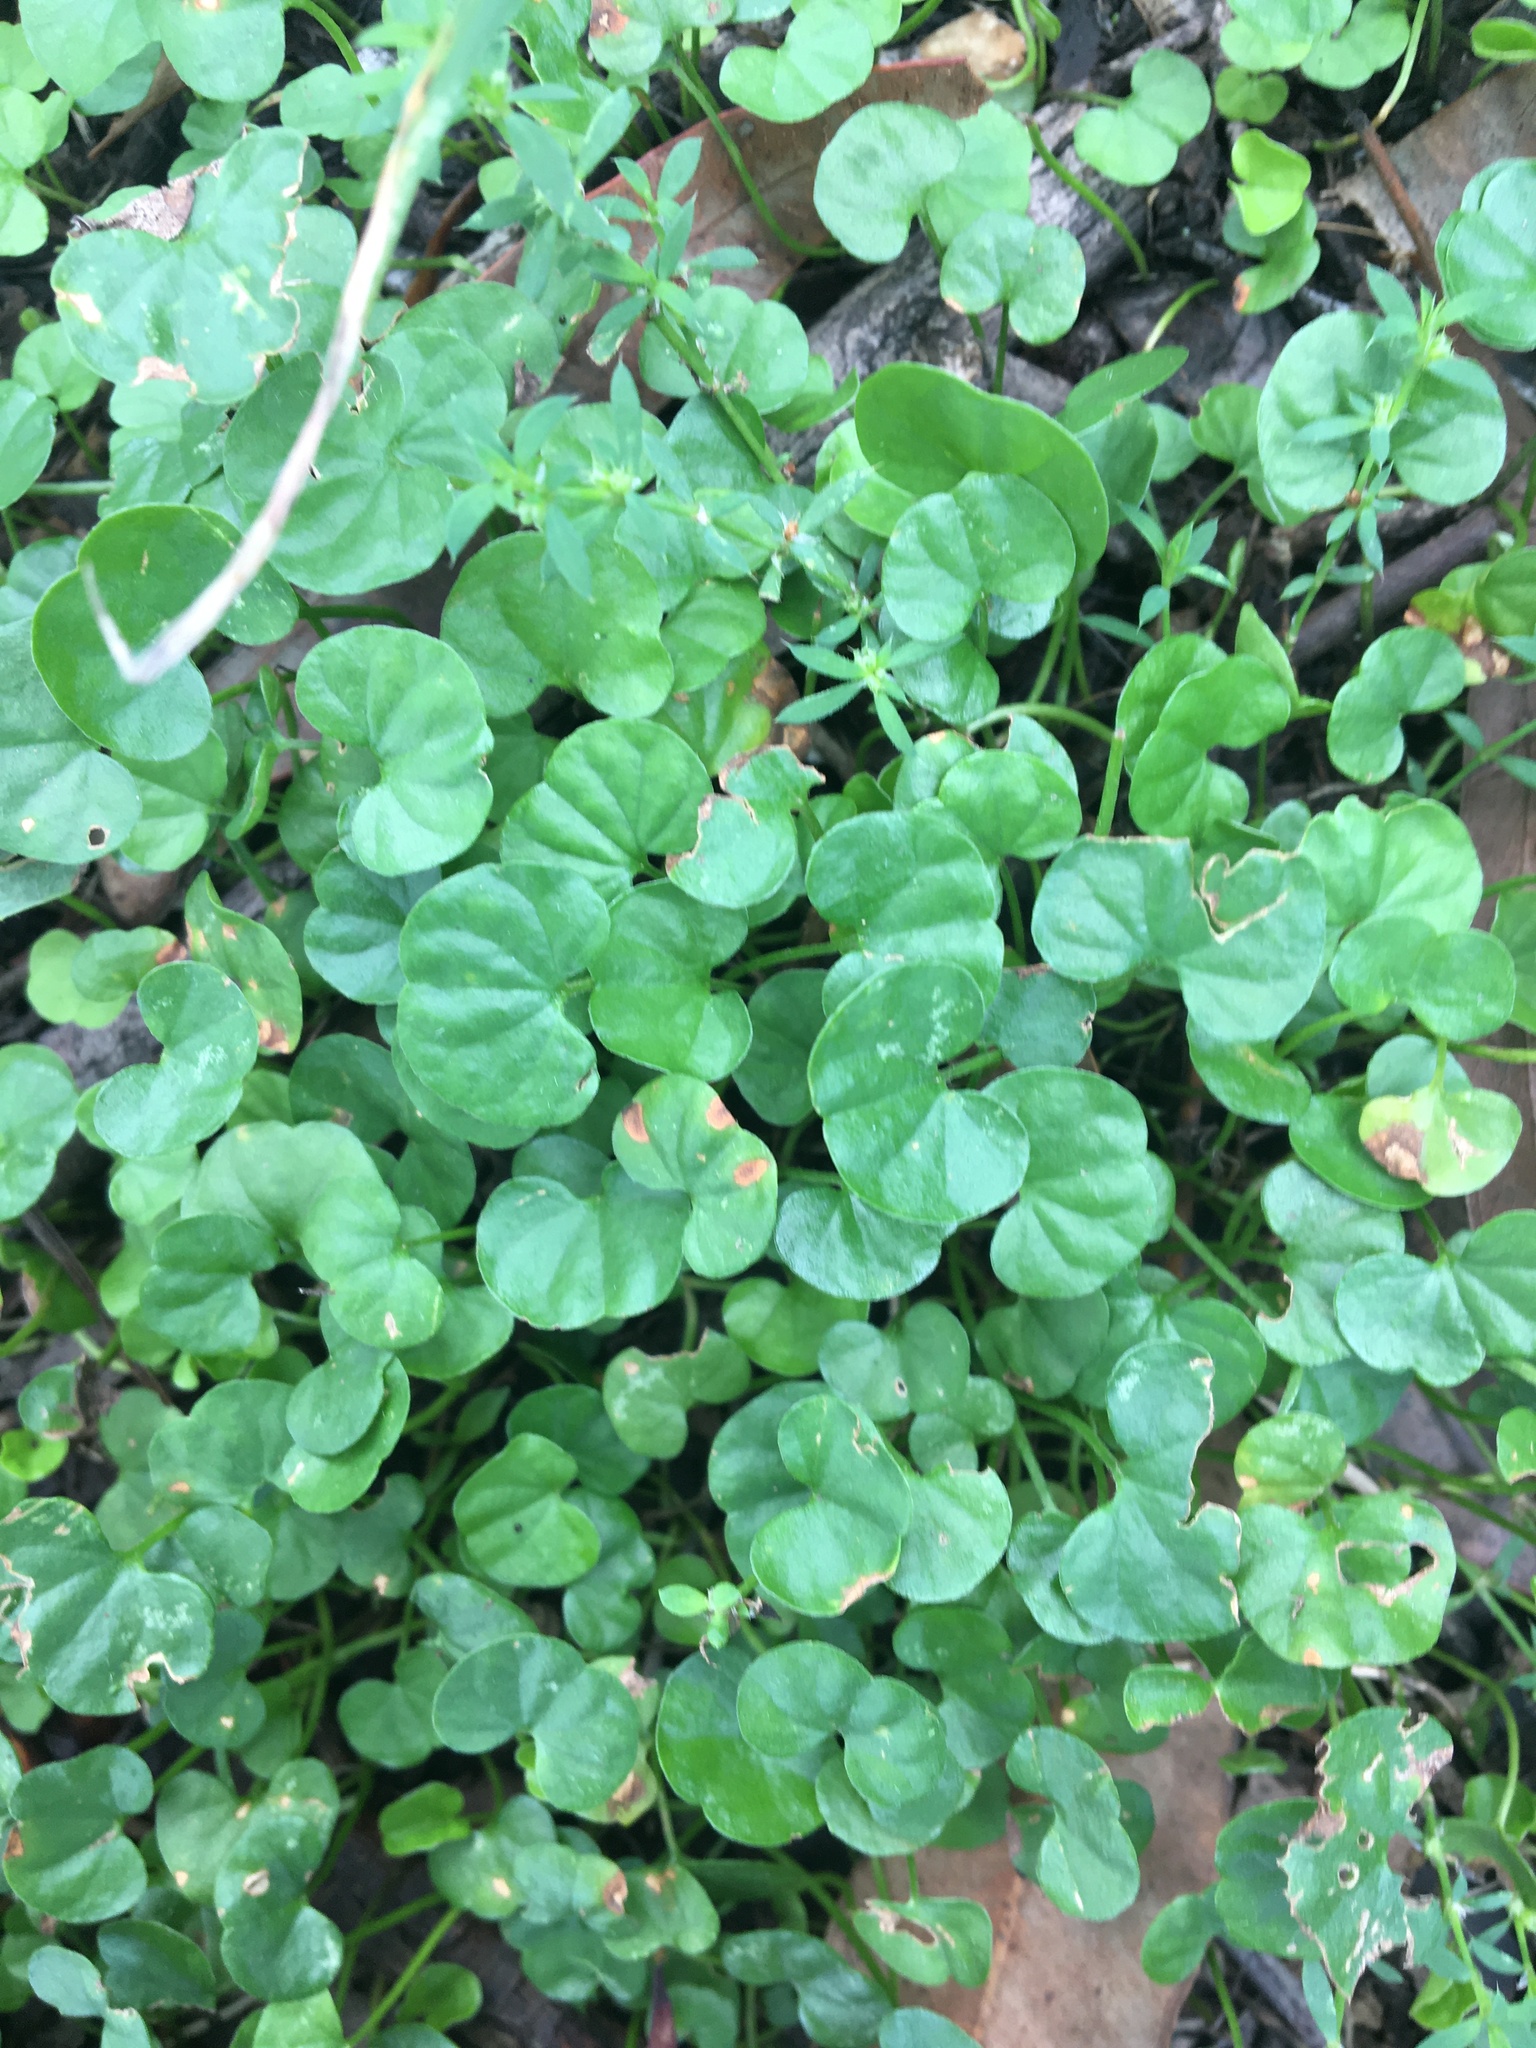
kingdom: Plantae
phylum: Tracheophyta
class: Magnoliopsida
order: Solanales
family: Convolvulaceae
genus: Dichondra
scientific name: Dichondra repens
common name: Kidneyweed
